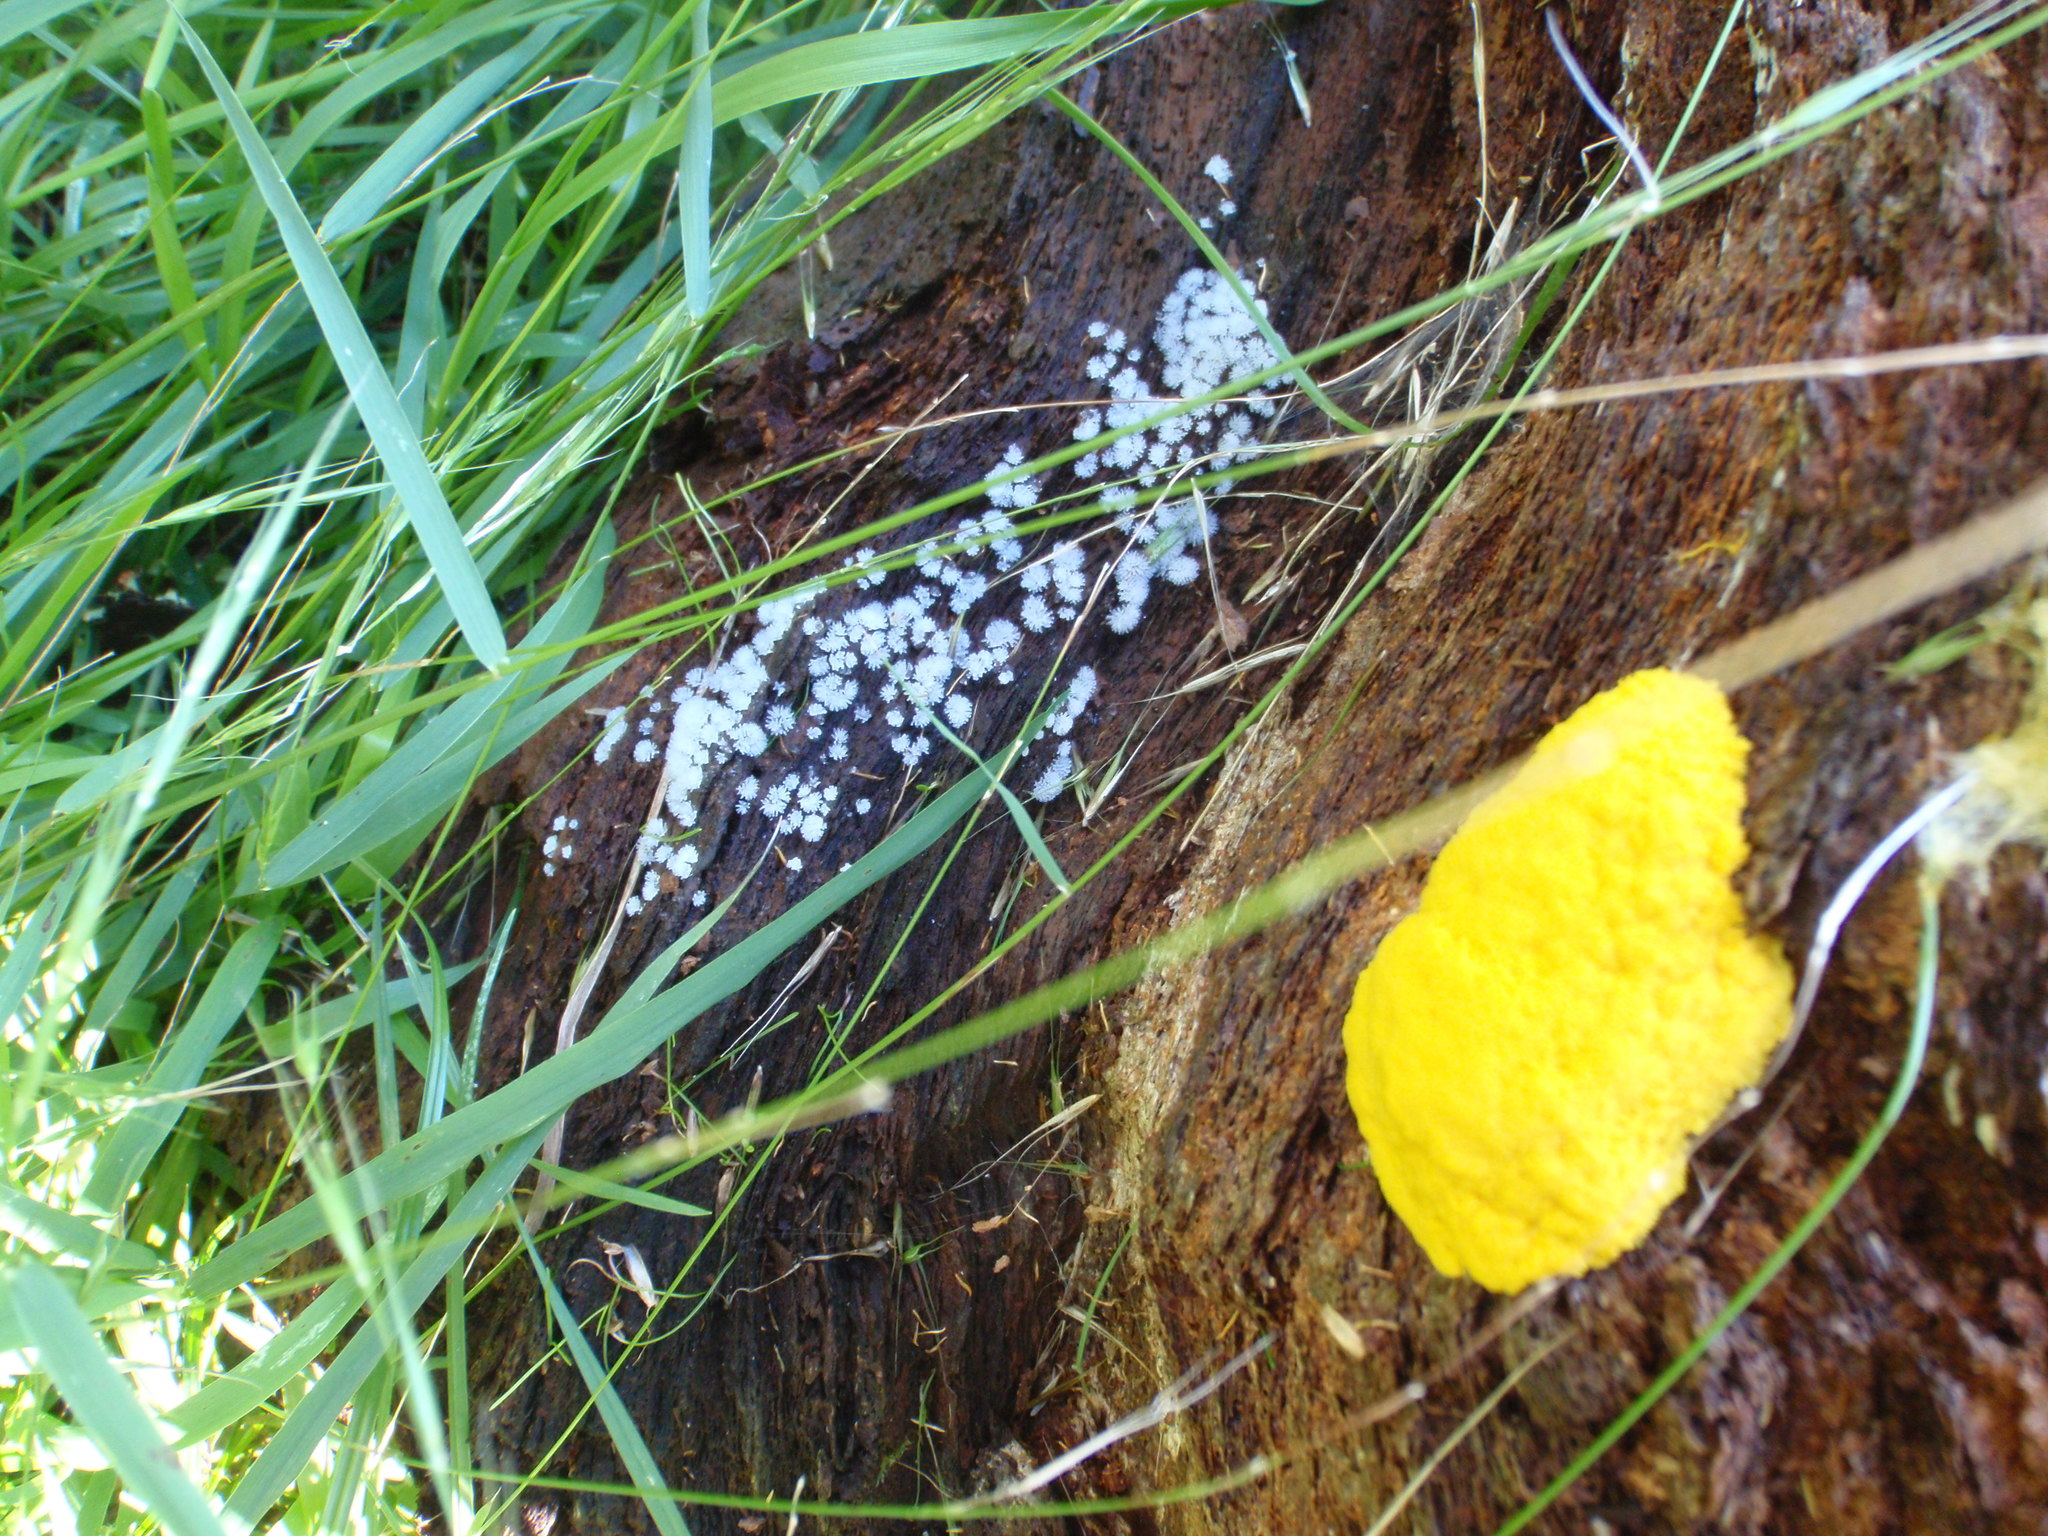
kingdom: Protozoa
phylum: Mycetozoa
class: Myxomycetes
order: Physarales
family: Physaraceae
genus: Fuligo
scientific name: Fuligo septica
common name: Dog vomit slime mold
